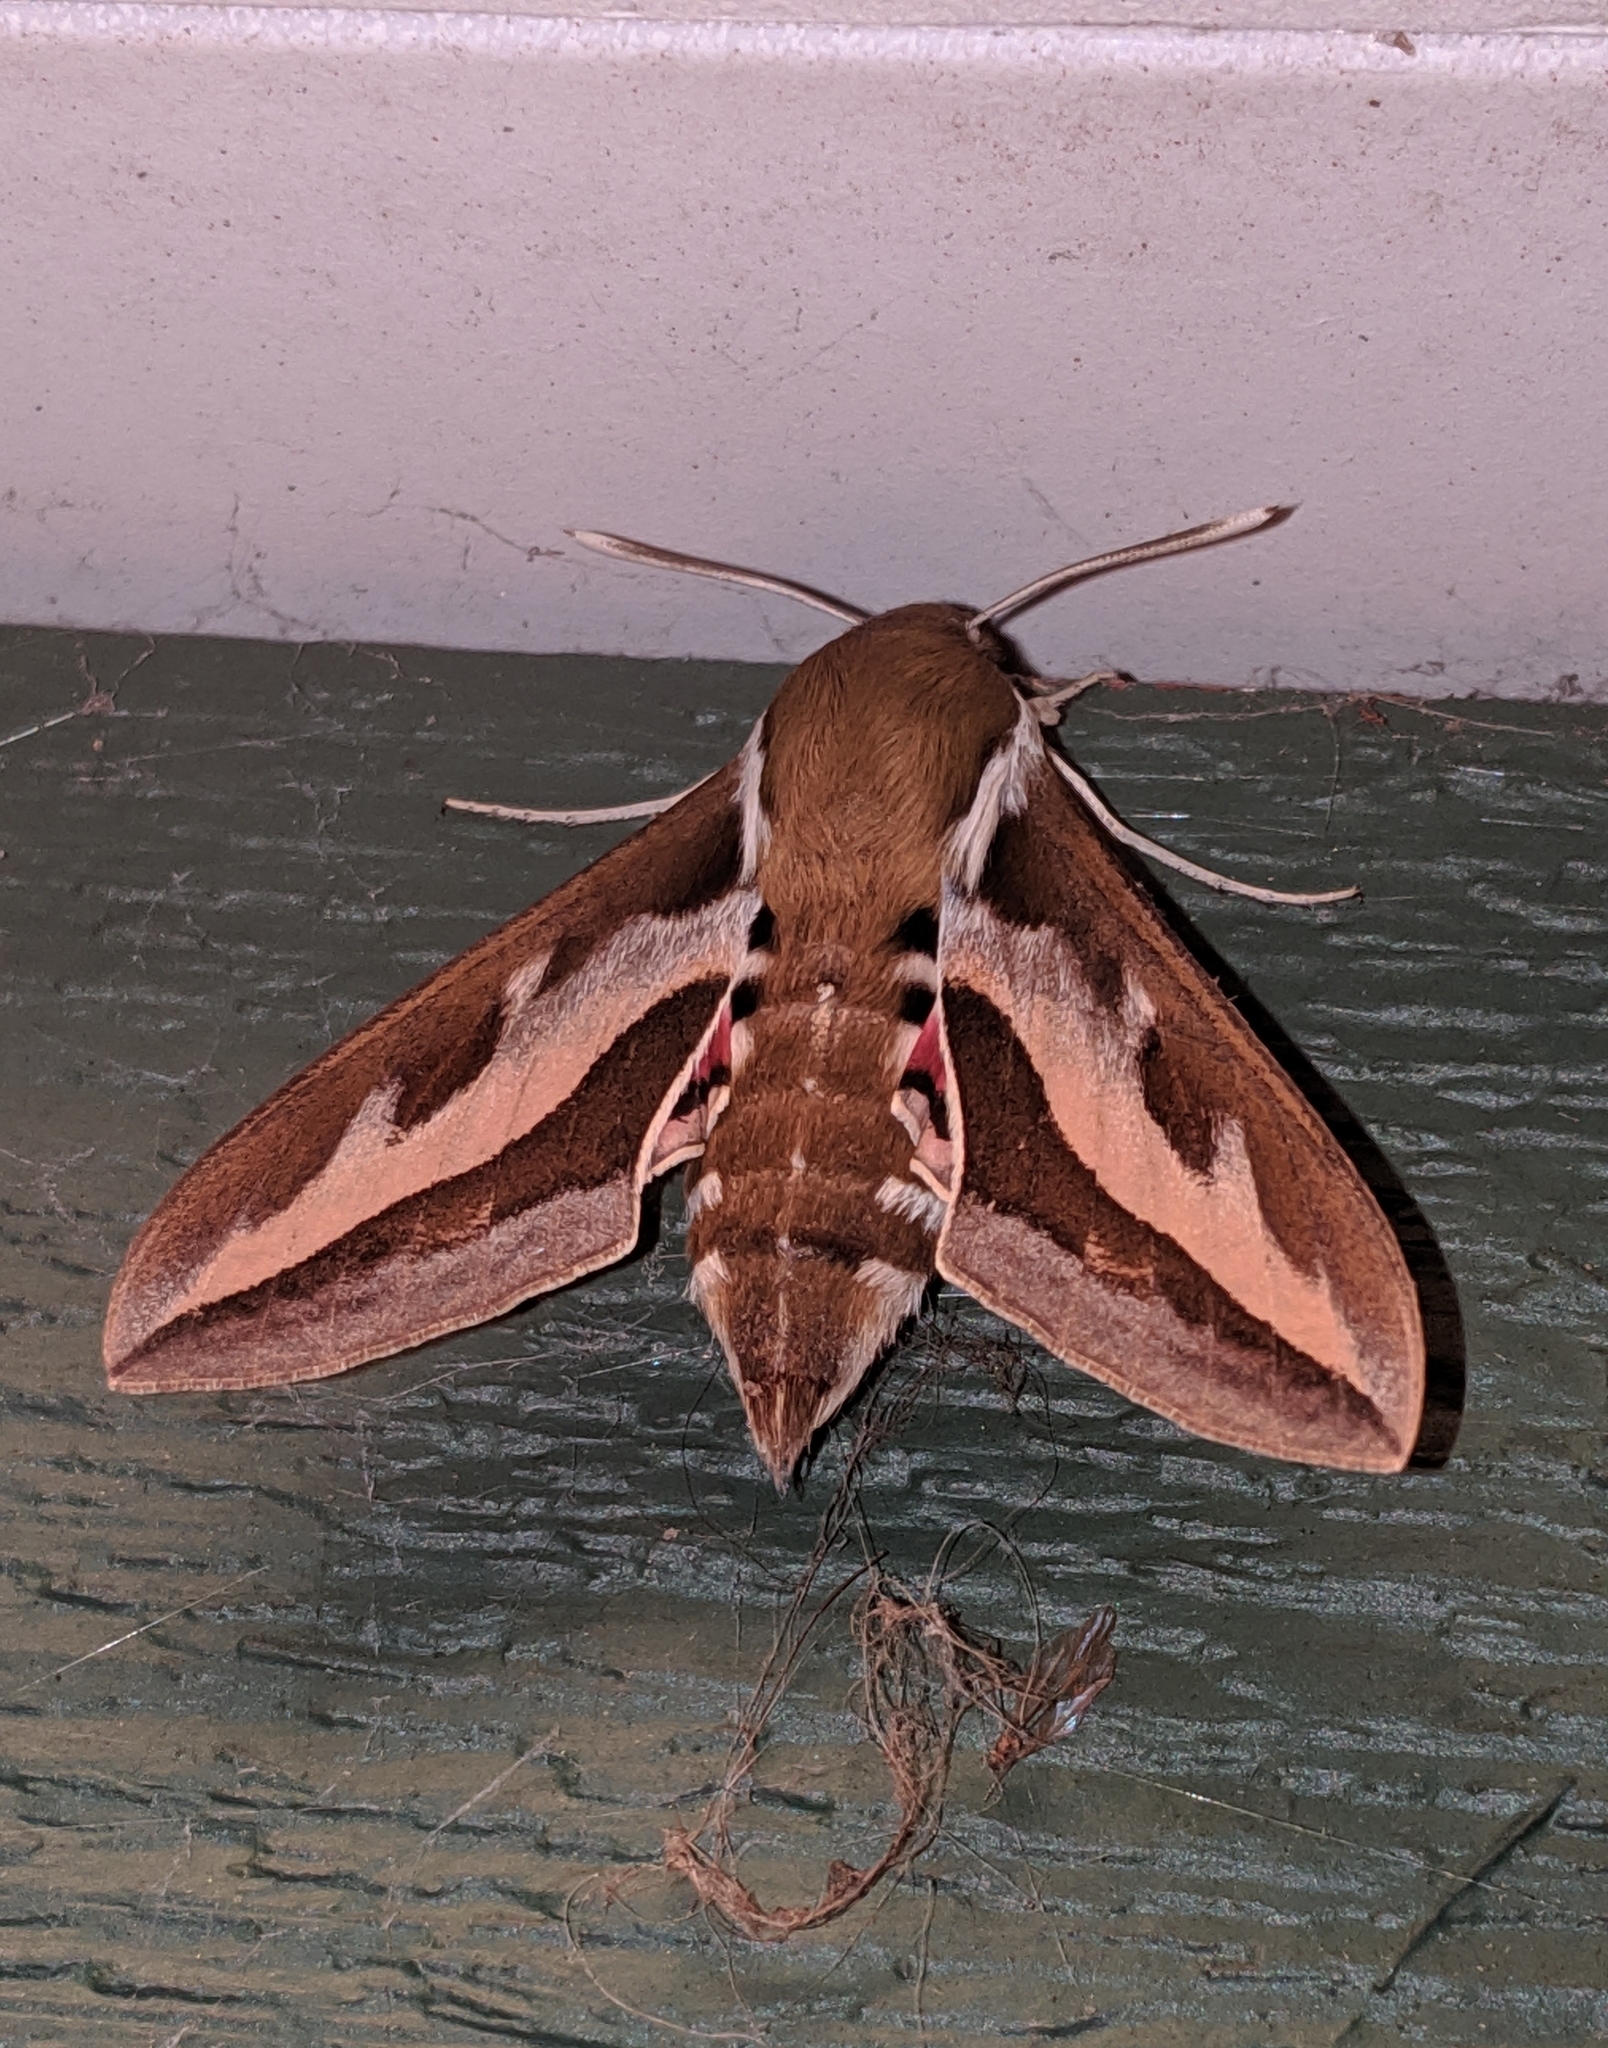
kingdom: Animalia
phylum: Arthropoda
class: Insecta
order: Lepidoptera
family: Sphingidae
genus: Hyles
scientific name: Hyles gallii
